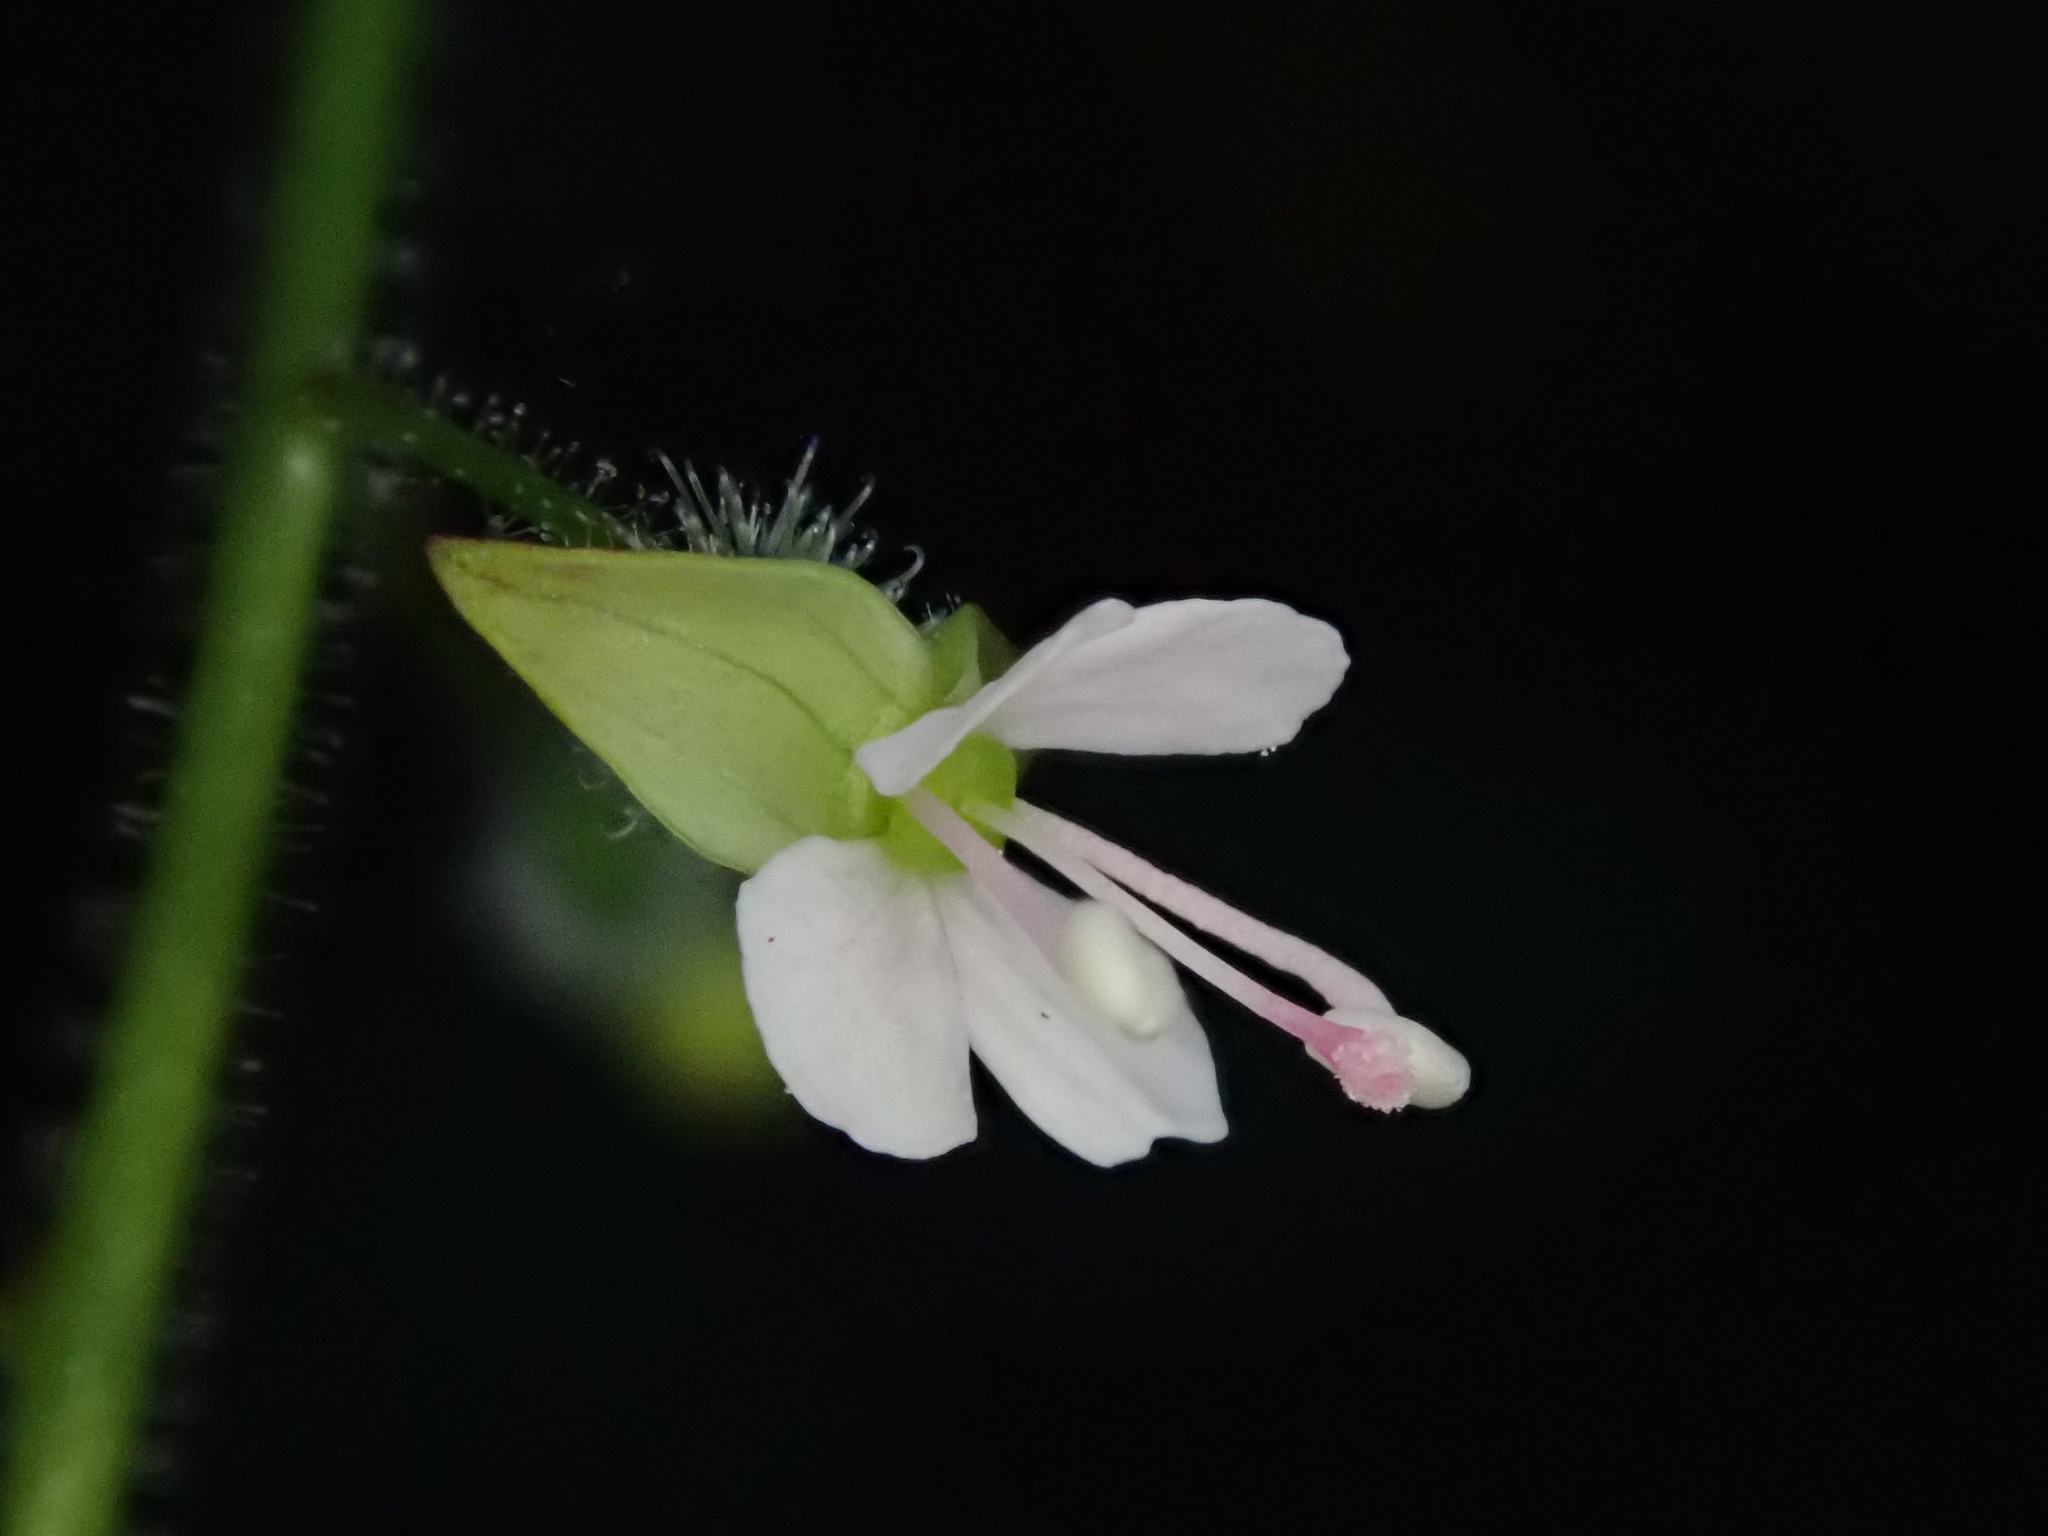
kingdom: Plantae
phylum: Tracheophyta
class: Magnoliopsida
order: Myrtales
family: Onagraceae
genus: Circaea
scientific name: Circaea lutetiana
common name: Enchanter's-nightshade
